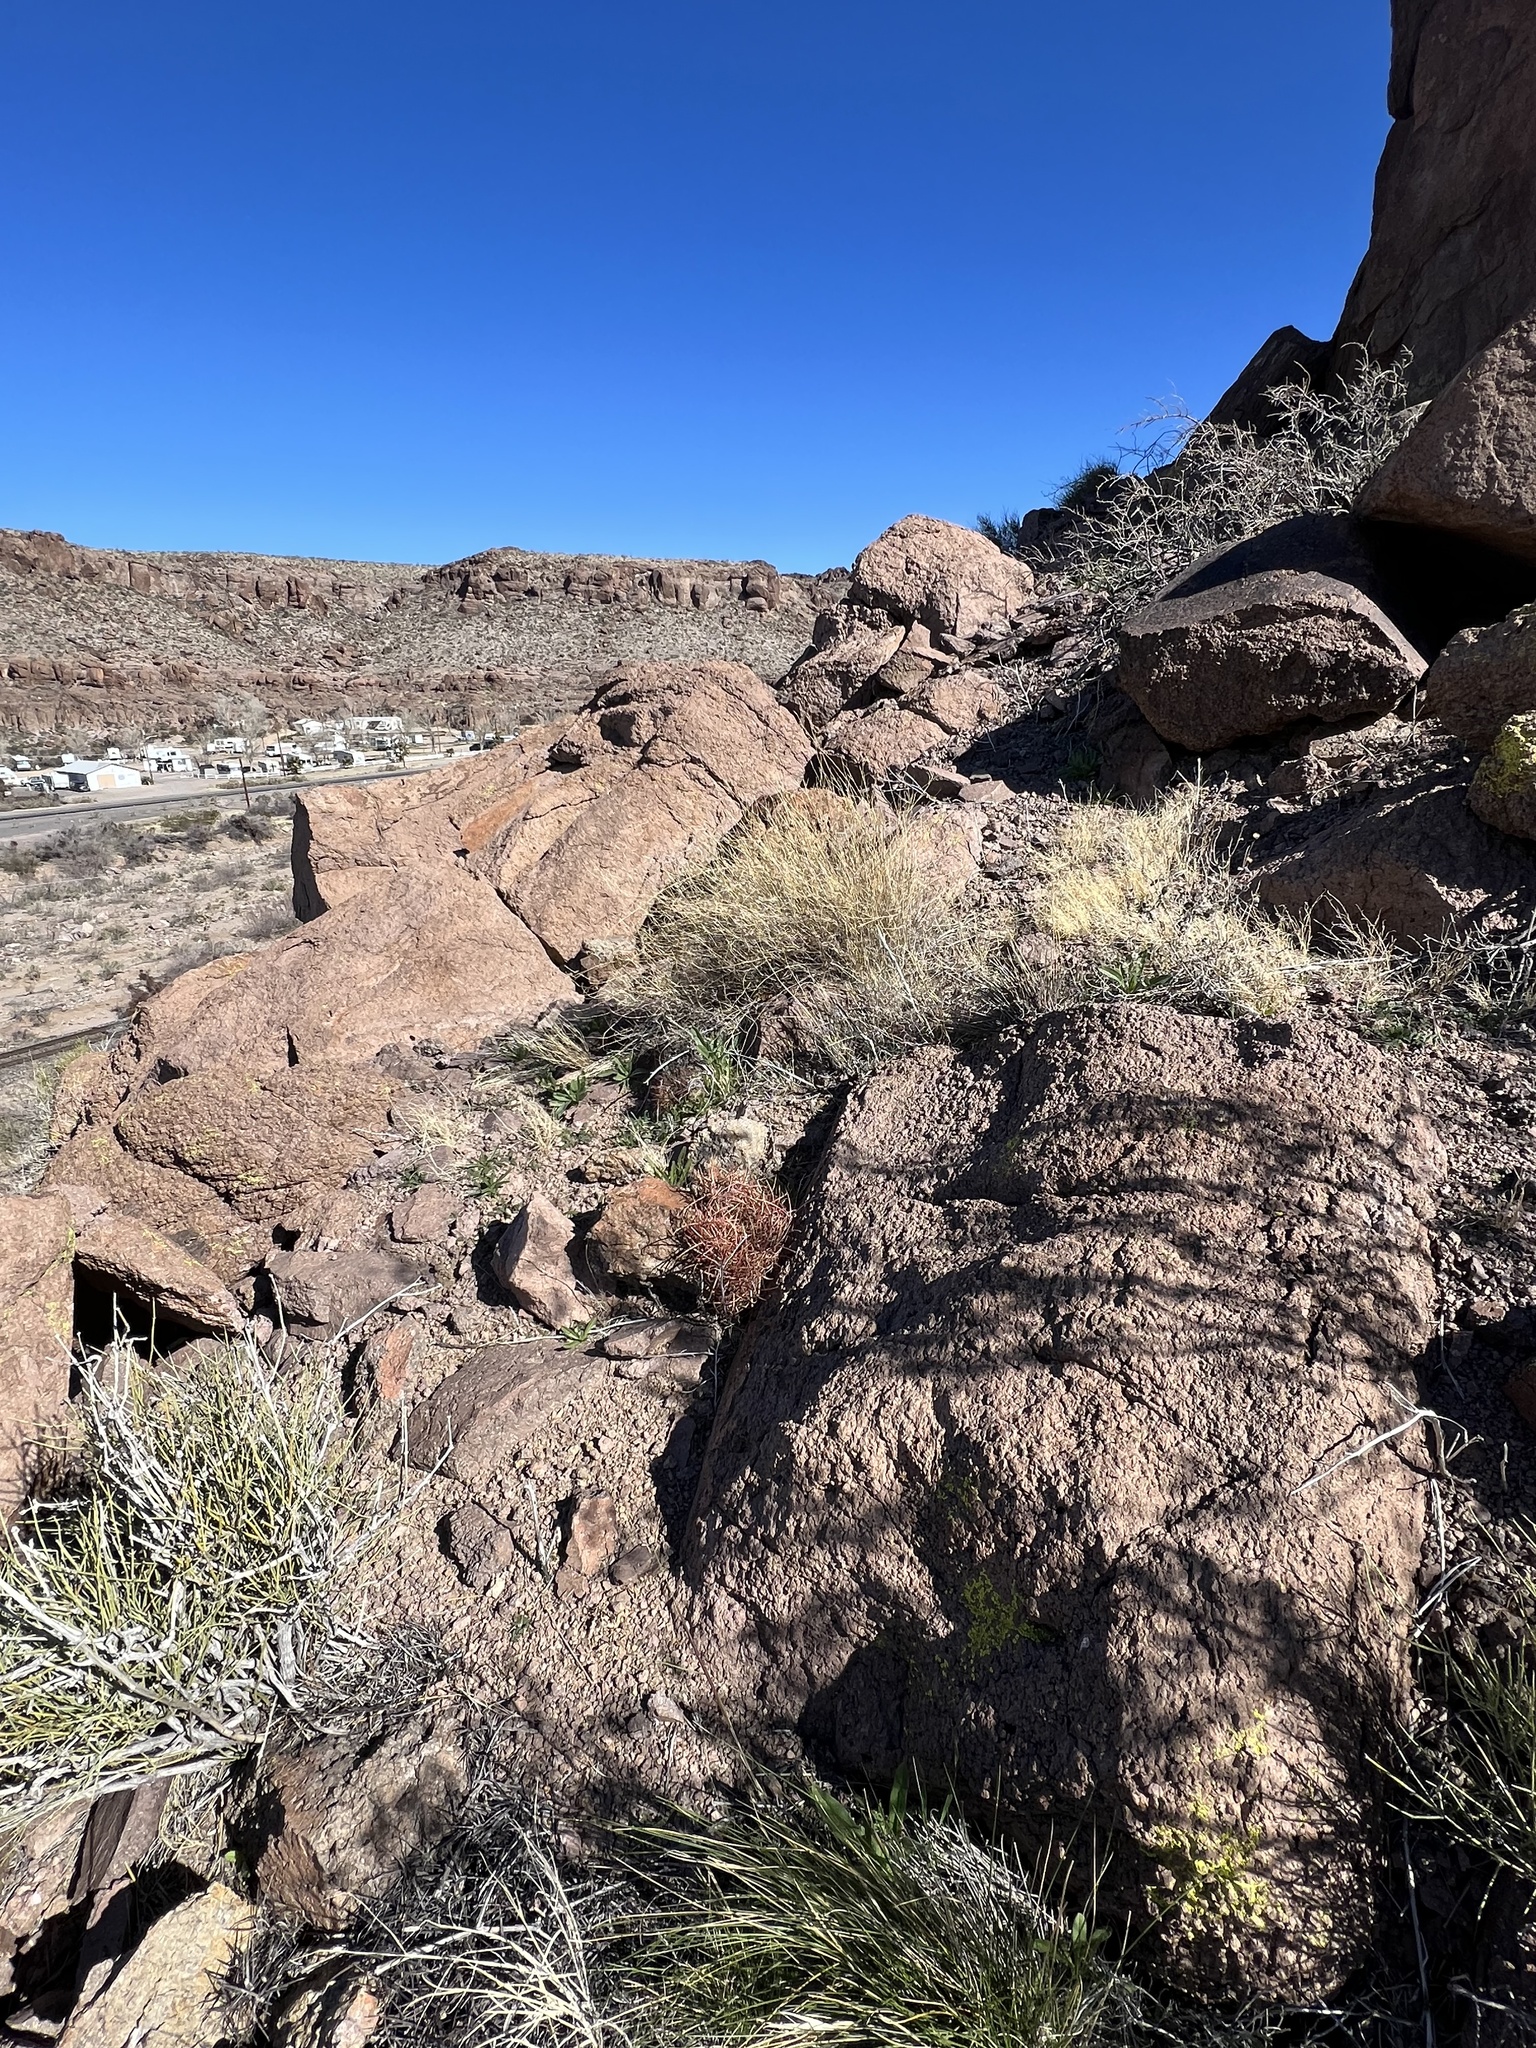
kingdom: Plantae
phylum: Tracheophyta
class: Magnoliopsida
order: Caryophyllales
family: Cactaceae
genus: Ferocactus
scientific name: Ferocactus cylindraceus
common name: California barrel cactus
